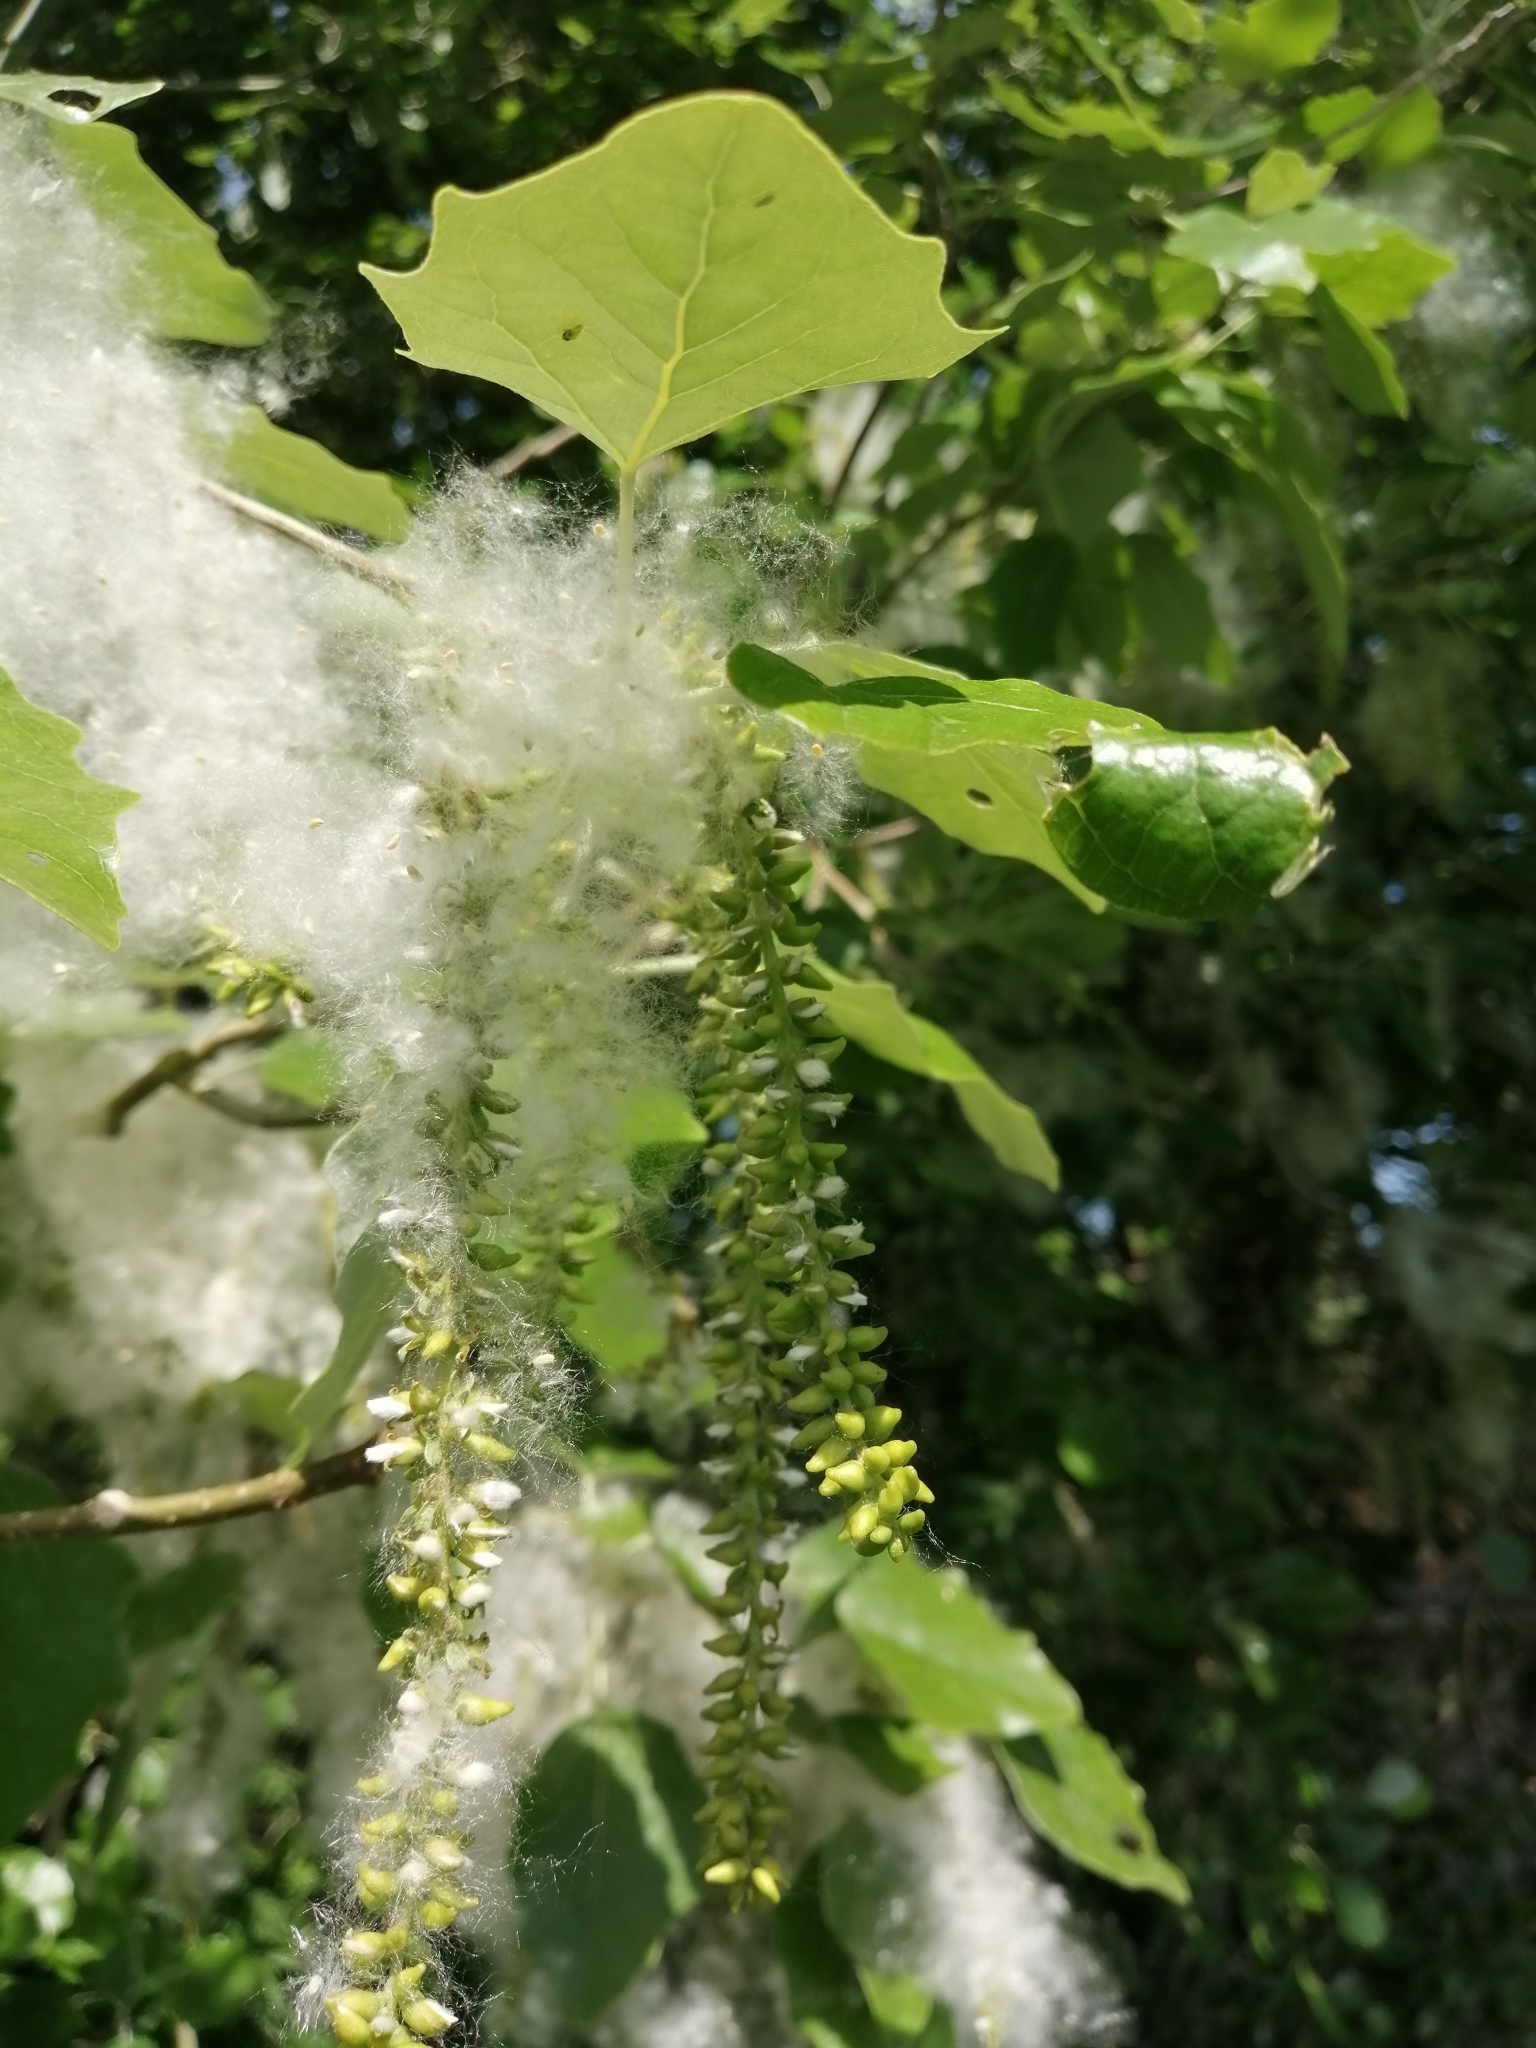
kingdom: Plantae
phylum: Tracheophyta
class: Magnoliopsida
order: Malpighiales
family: Salicaceae
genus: Populus
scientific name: Populus alba
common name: White poplar
